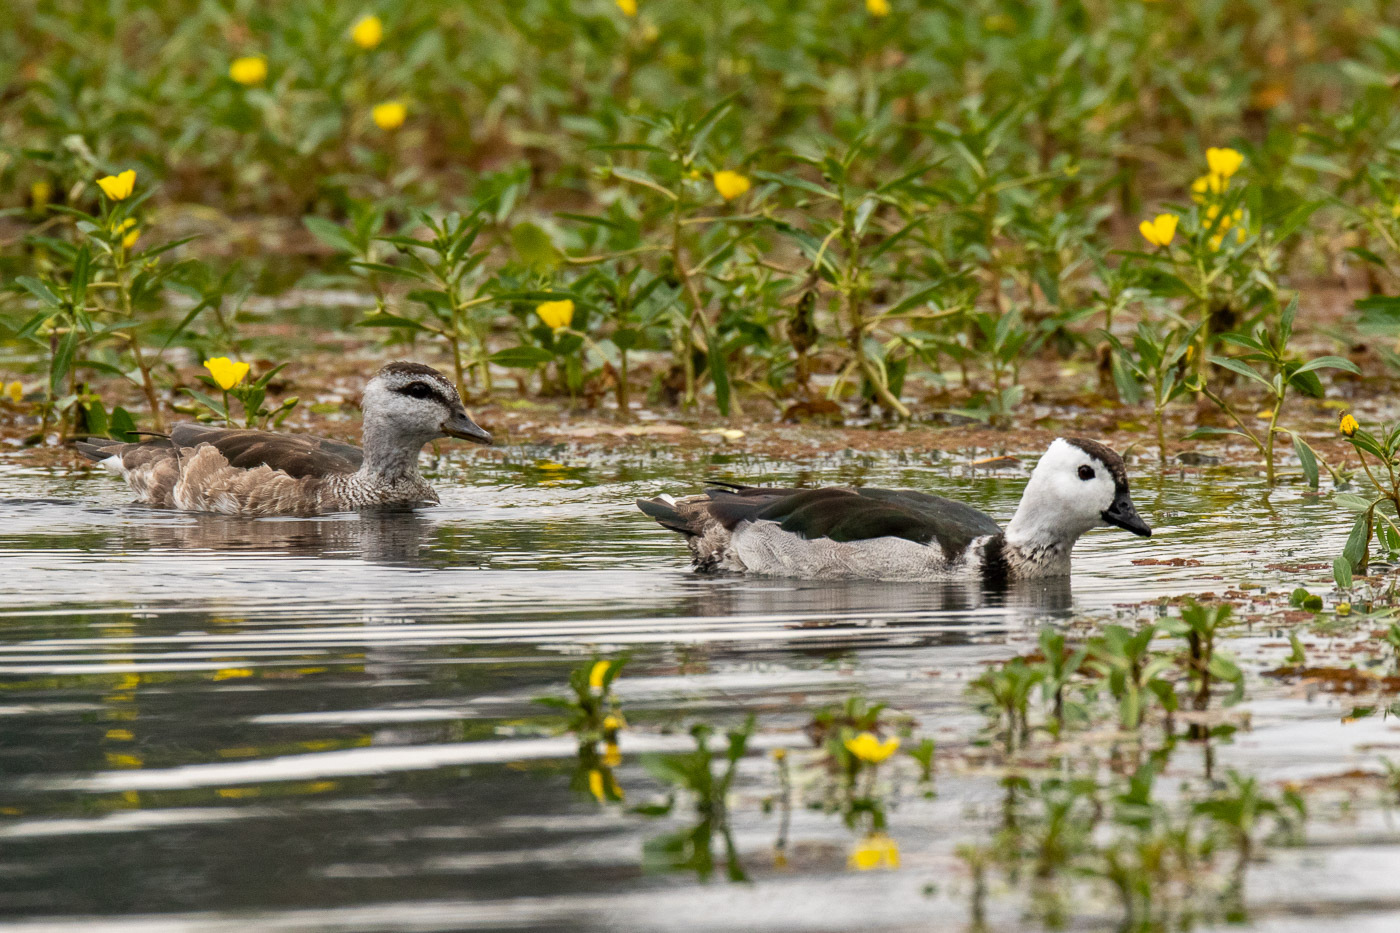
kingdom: Animalia
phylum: Chordata
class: Aves
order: Anseriformes
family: Anatidae
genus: Nettapus
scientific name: Nettapus coromandelianus
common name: Cotton pygmy-goose
